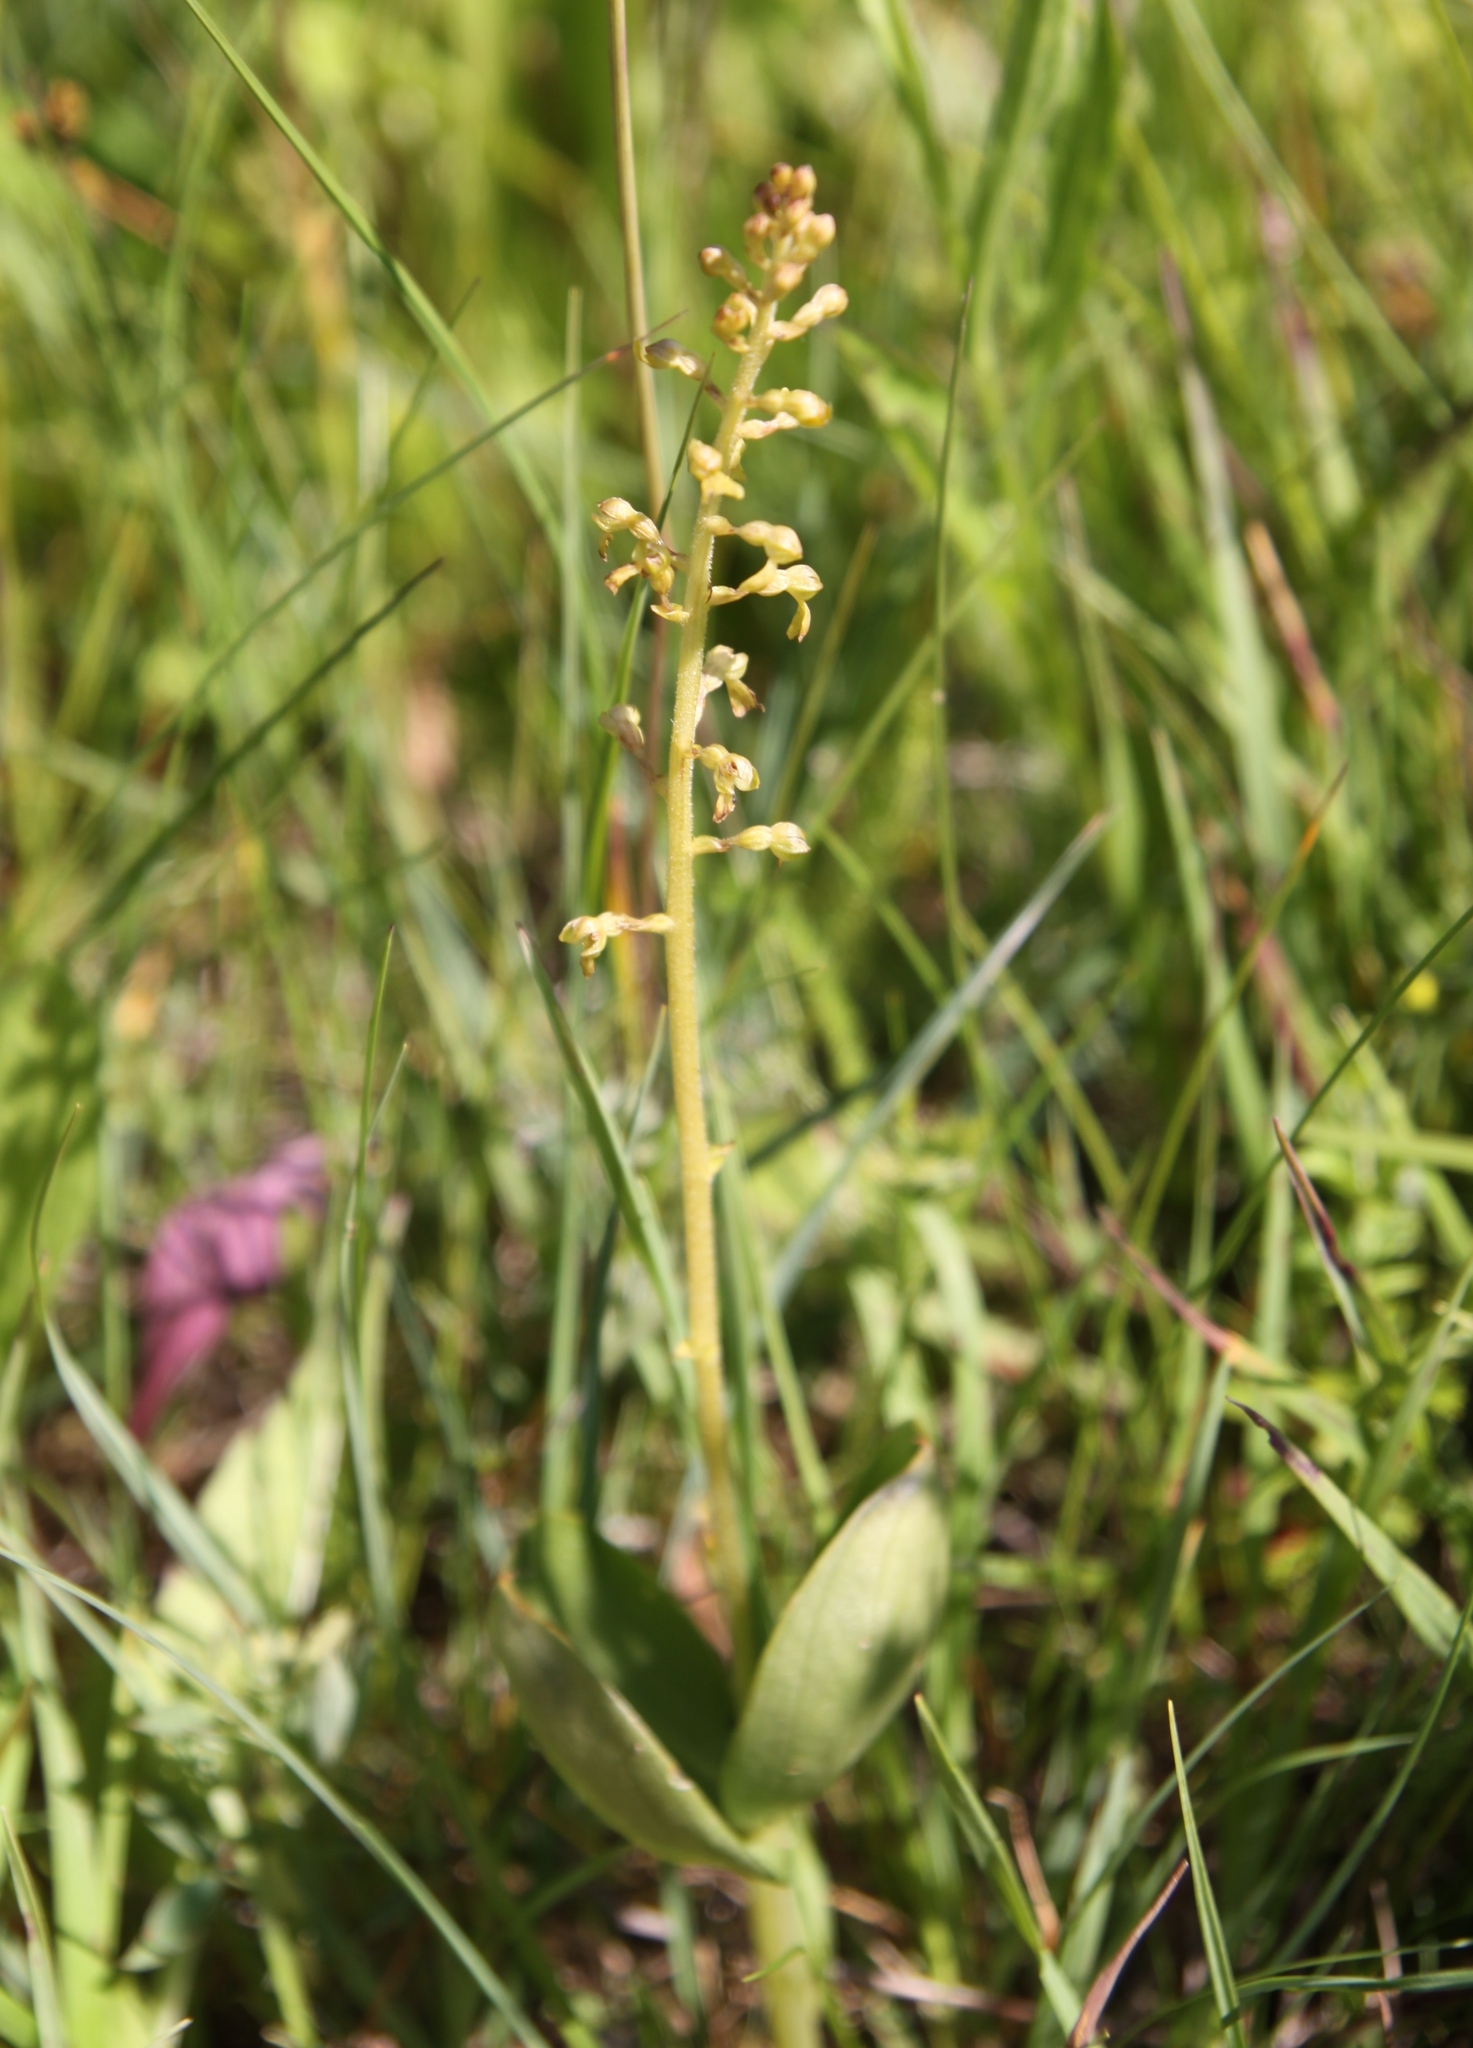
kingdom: Plantae
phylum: Tracheophyta
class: Liliopsida
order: Asparagales
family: Orchidaceae
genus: Neottia
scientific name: Neottia ovata
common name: Common twayblade
